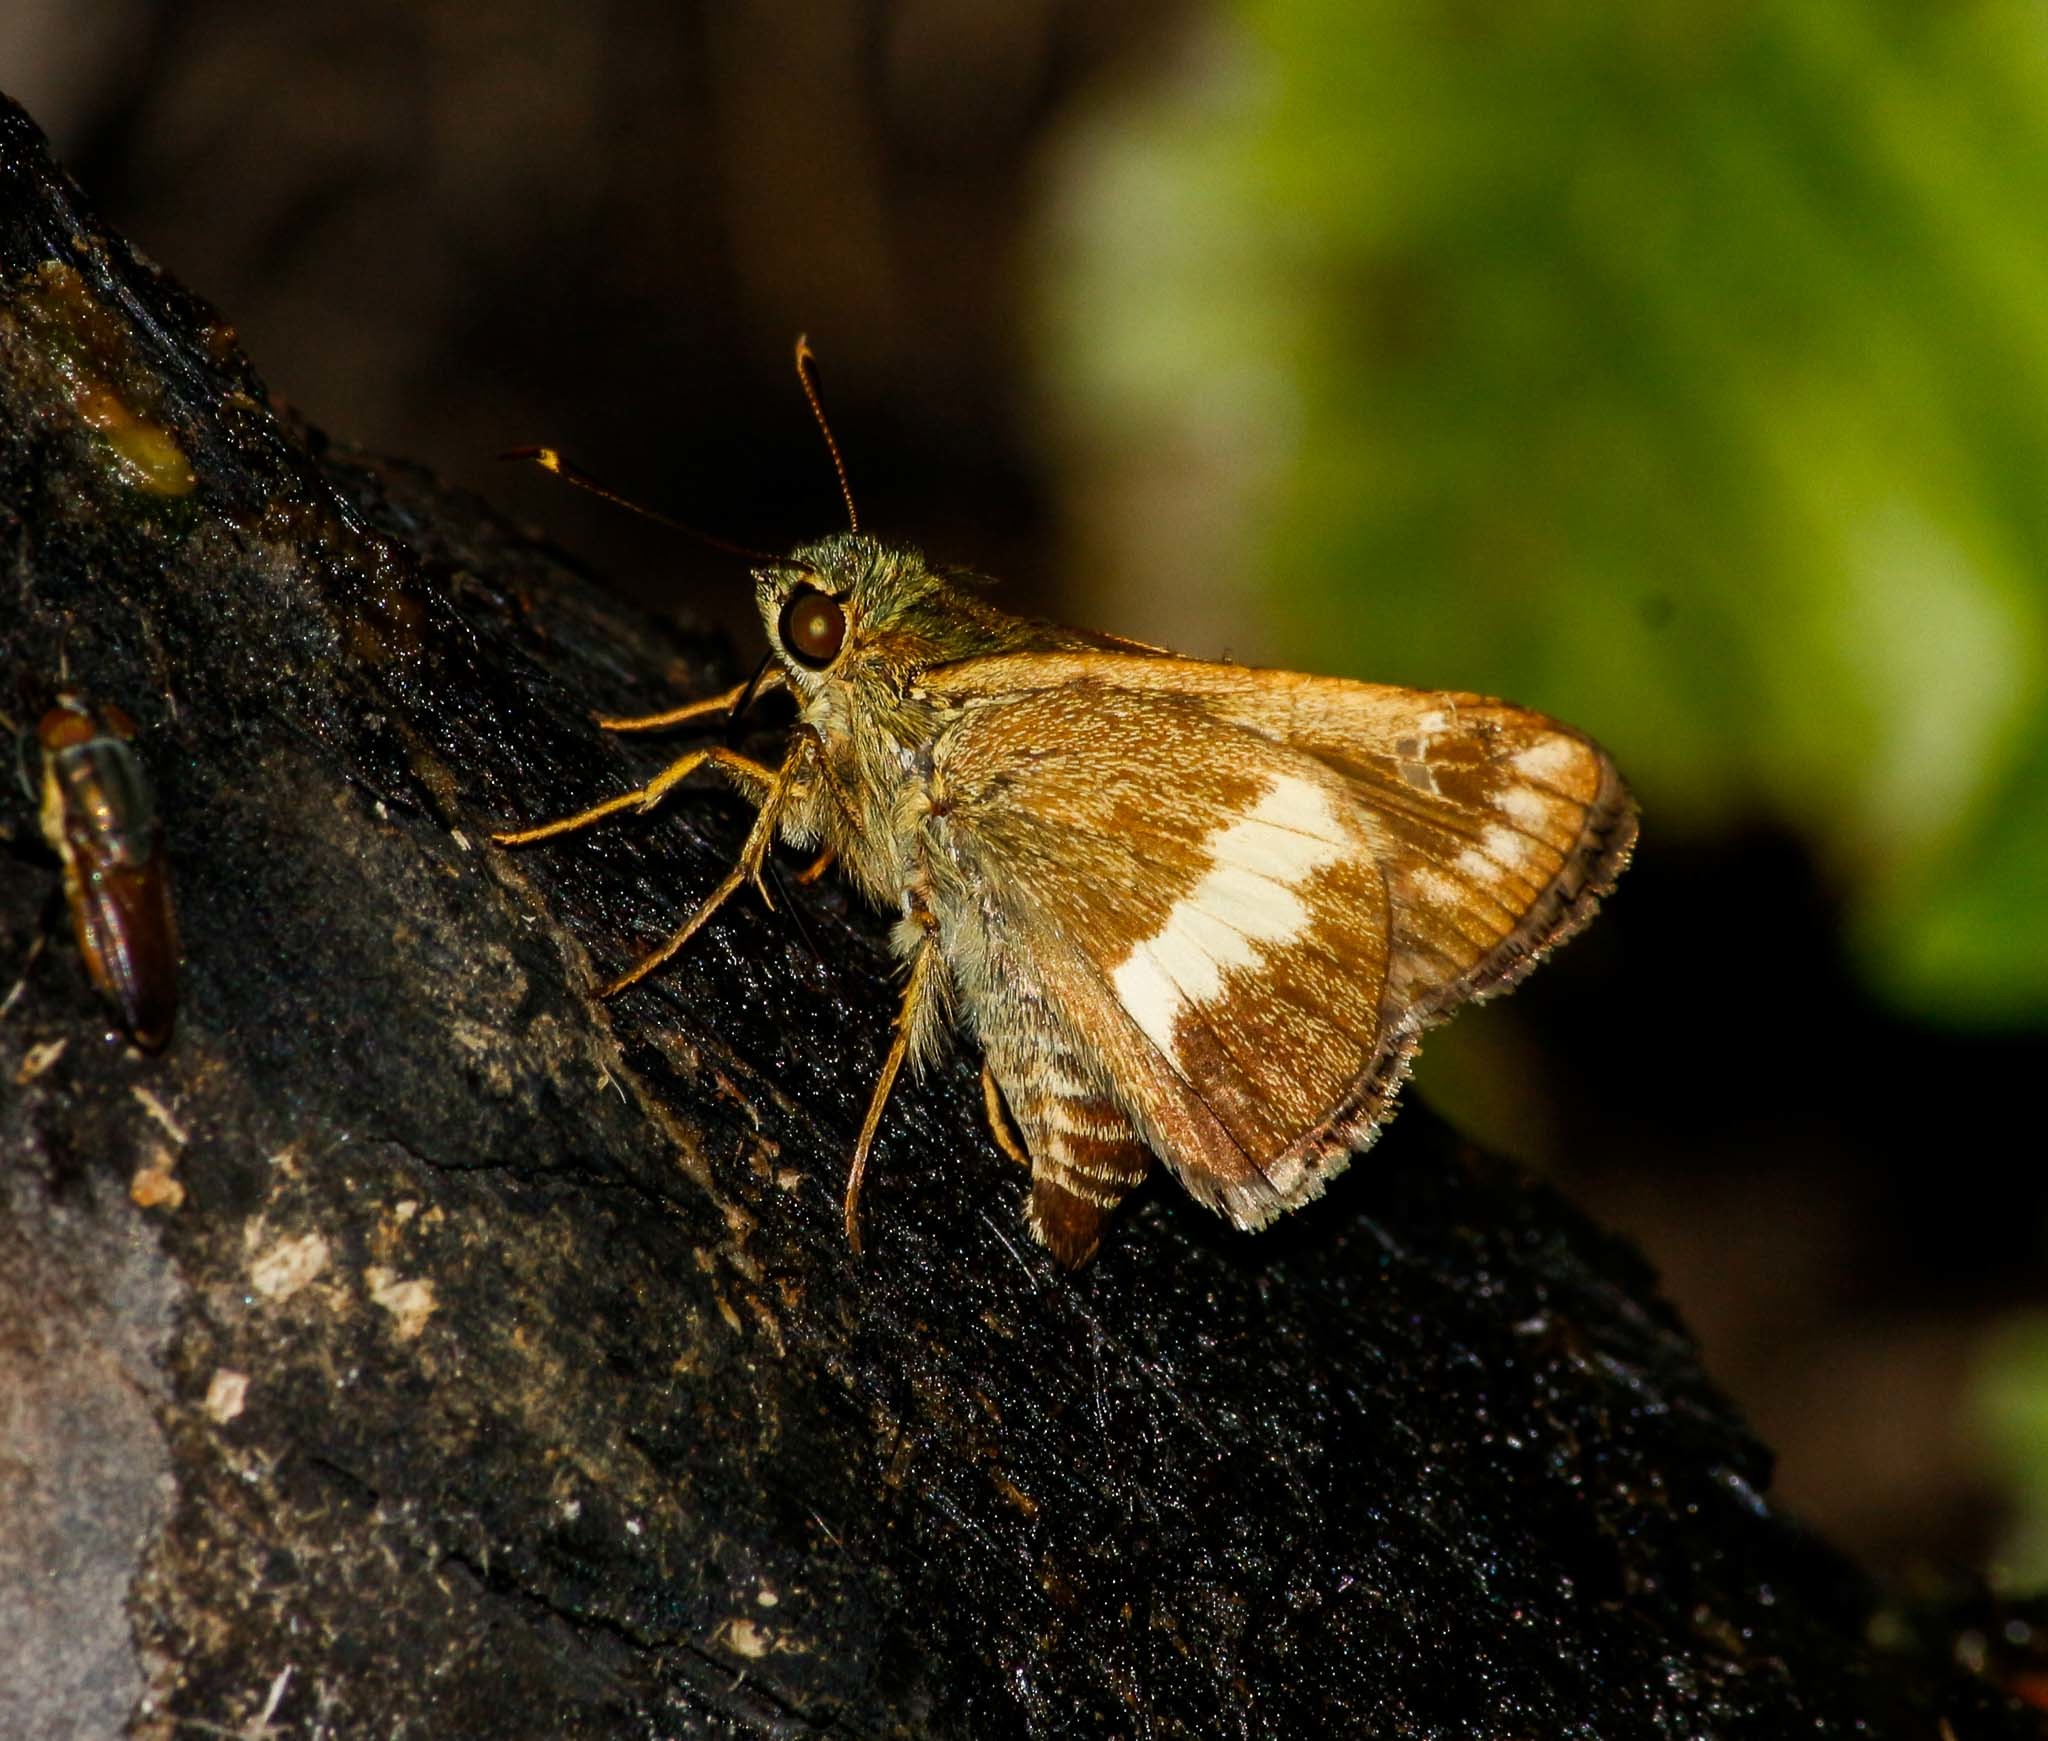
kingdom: Animalia
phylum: Arthropoda
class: Insecta
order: Lepidoptera
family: Hesperiidae
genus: Halpe
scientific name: Halpe zema
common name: Dark banded ace
